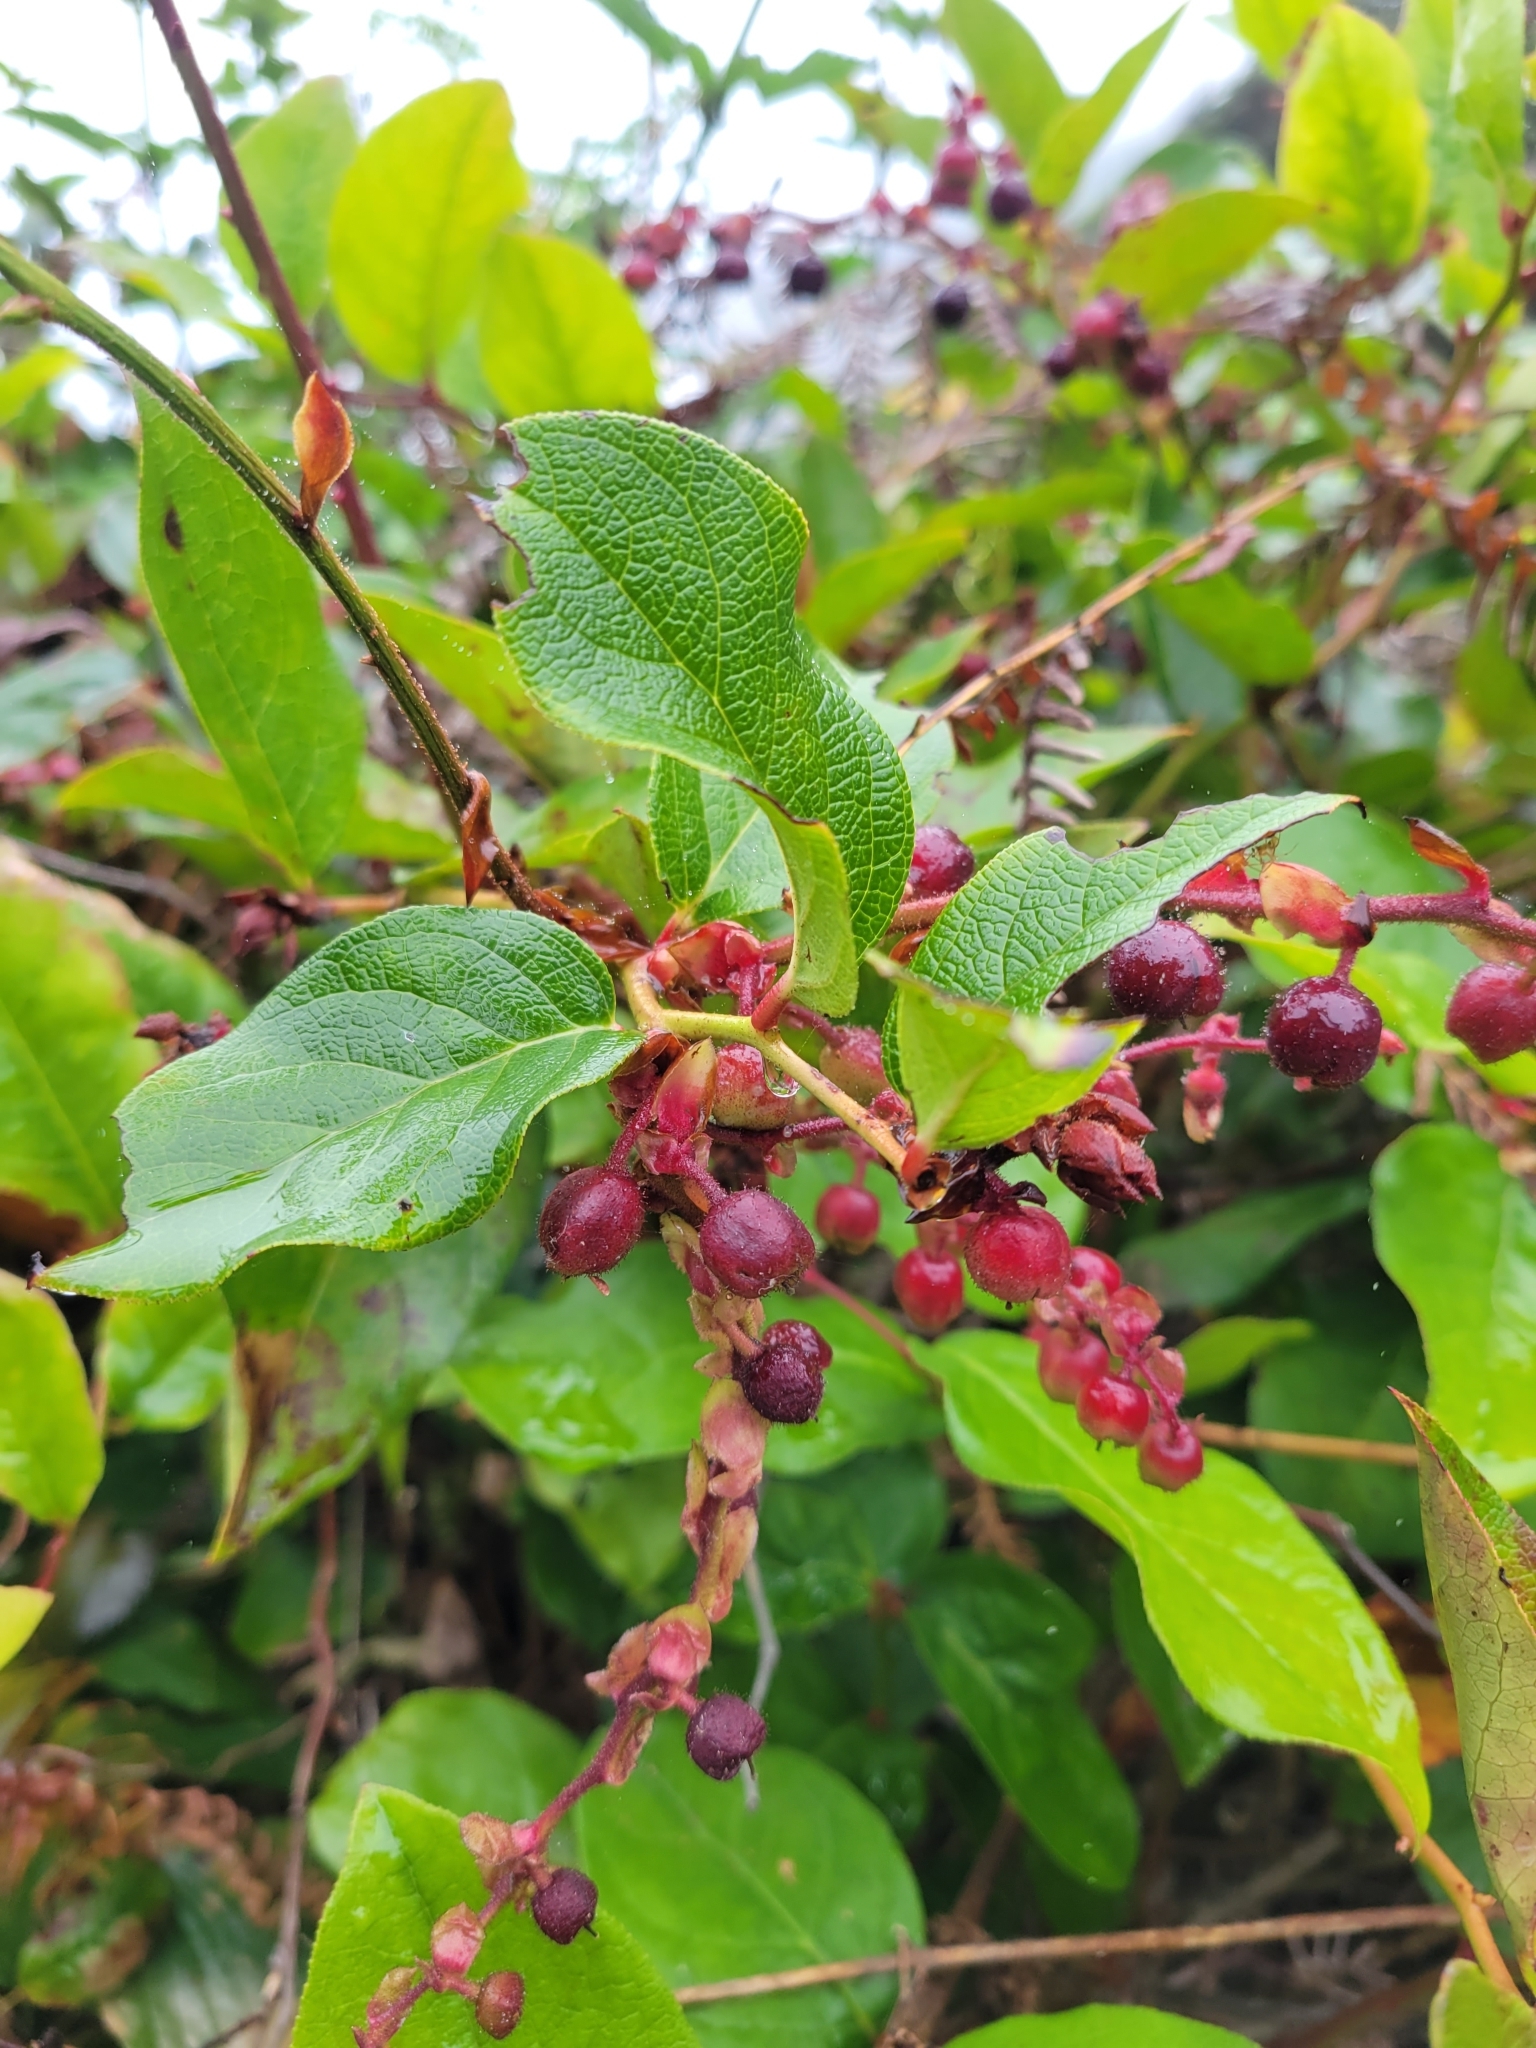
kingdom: Plantae
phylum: Tracheophyta
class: Magnoliopsida
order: Ericales
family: Ericaceae
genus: Gaultheria
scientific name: Gaultheria shallon
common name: Shallon
